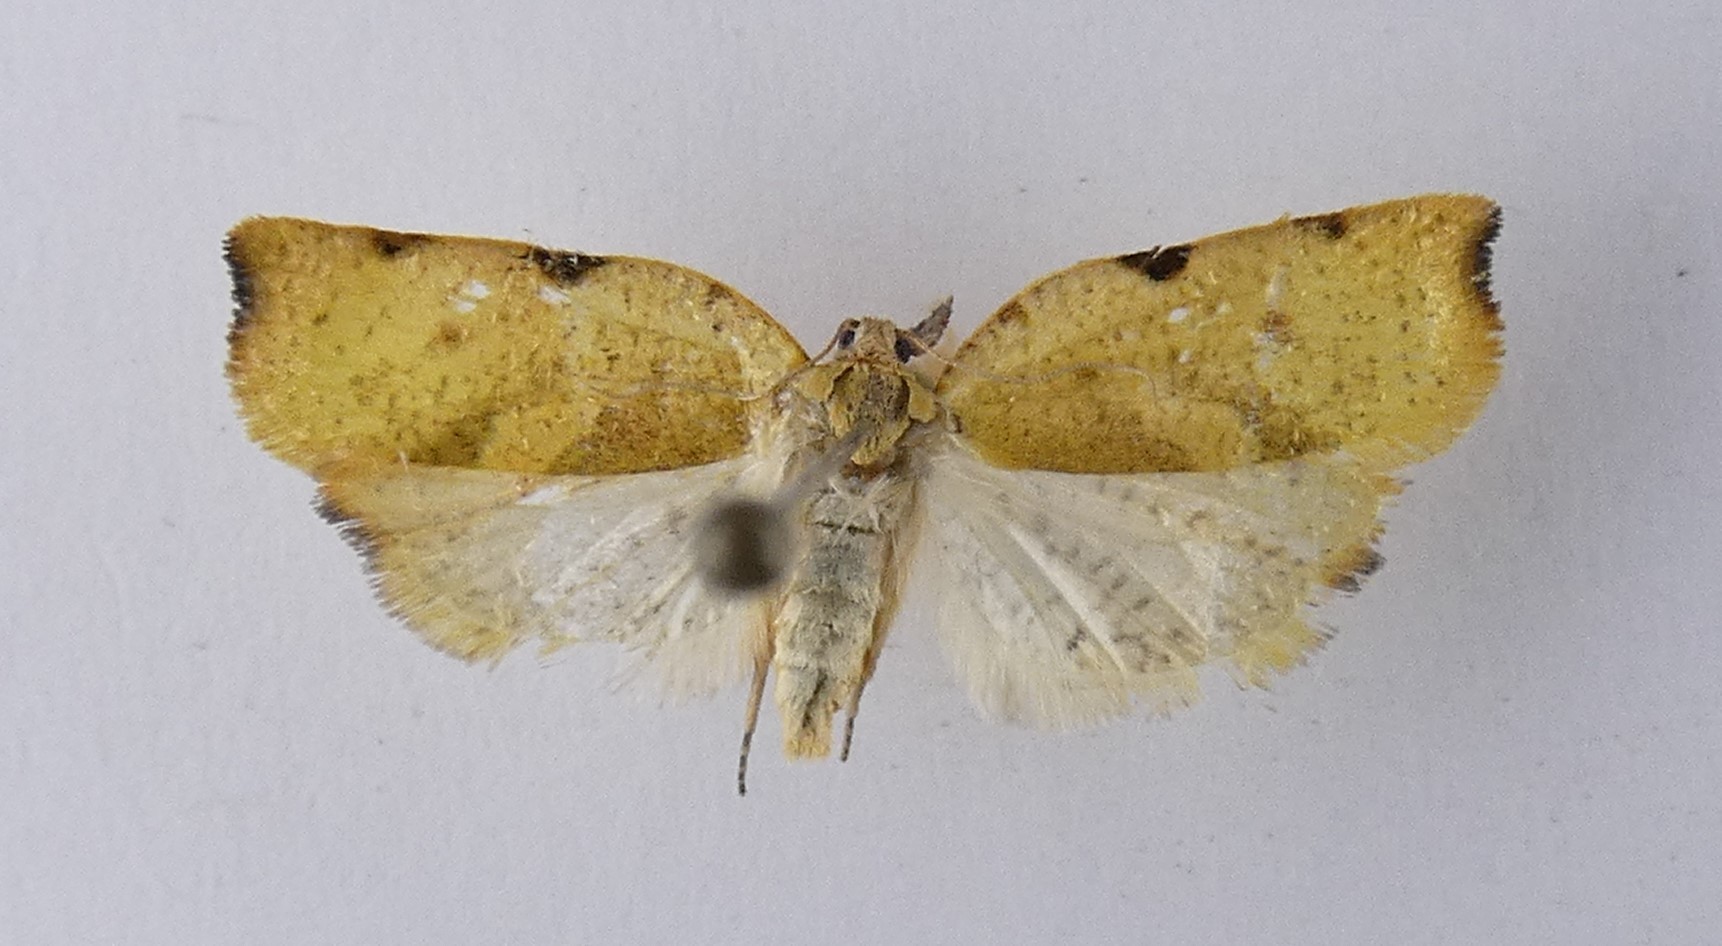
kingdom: Animalia
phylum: Arthropoda
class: Insecta
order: Lepidoptera
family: Tortricidae
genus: Apoctena
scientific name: Apoctena flavescens
